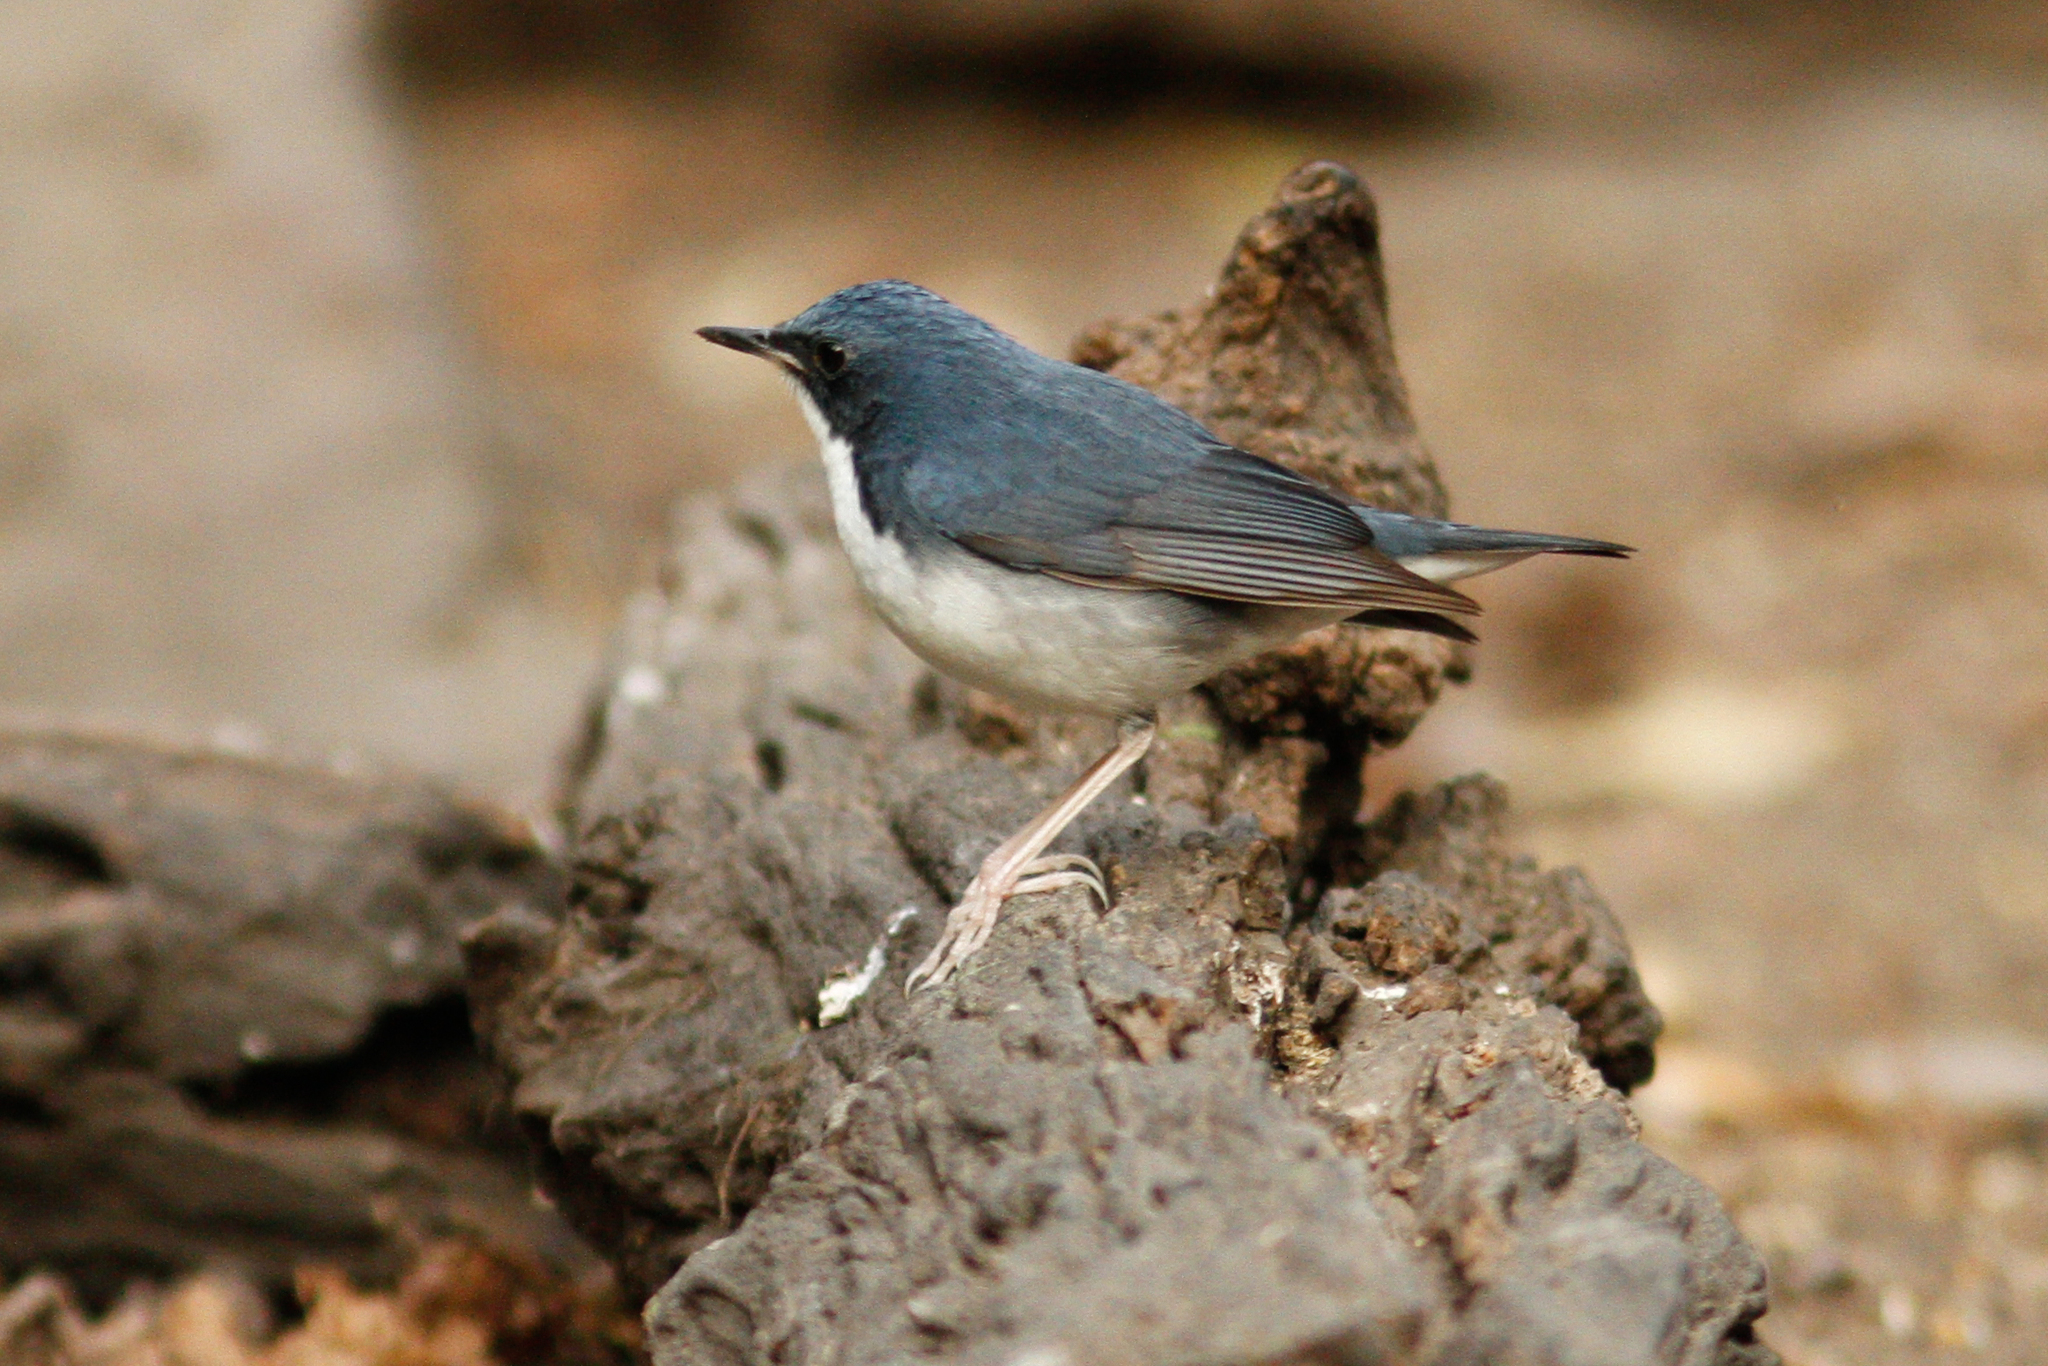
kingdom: Animalia
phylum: Chordata
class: Aves
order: Passeriformes
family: Muscicapidae
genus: Luscinia
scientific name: Luscinia cyane
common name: Siberian blue robin
